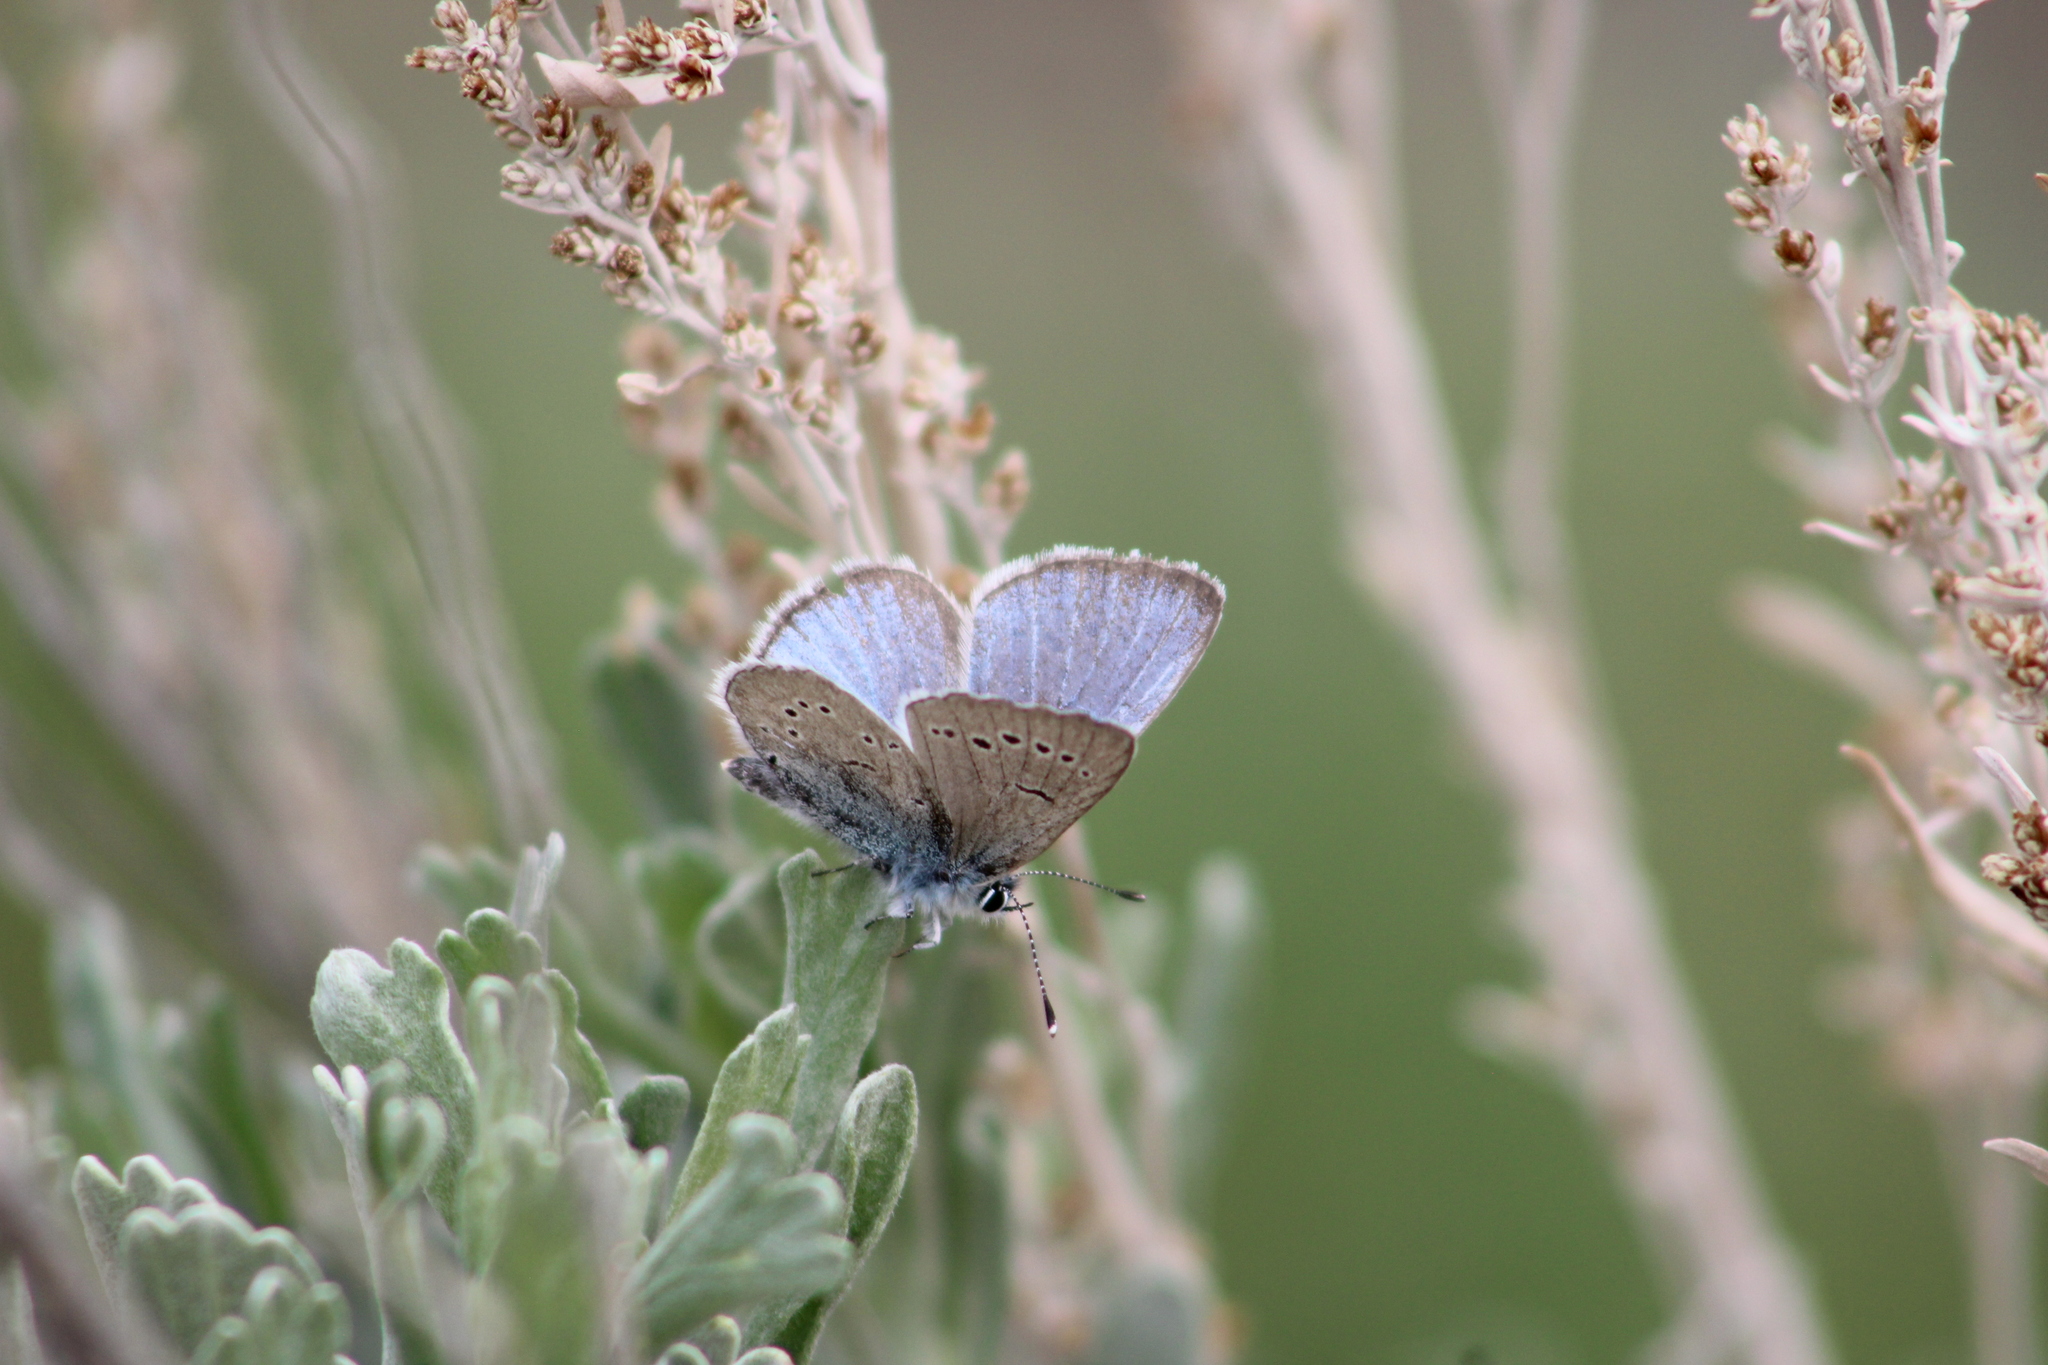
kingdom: Animalia
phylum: Arthropoda
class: Insecta
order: Lepidoptera
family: Lycaenidae
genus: Glaucopsyche
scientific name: Glaucopsyche lygdamus
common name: Silvery blue
